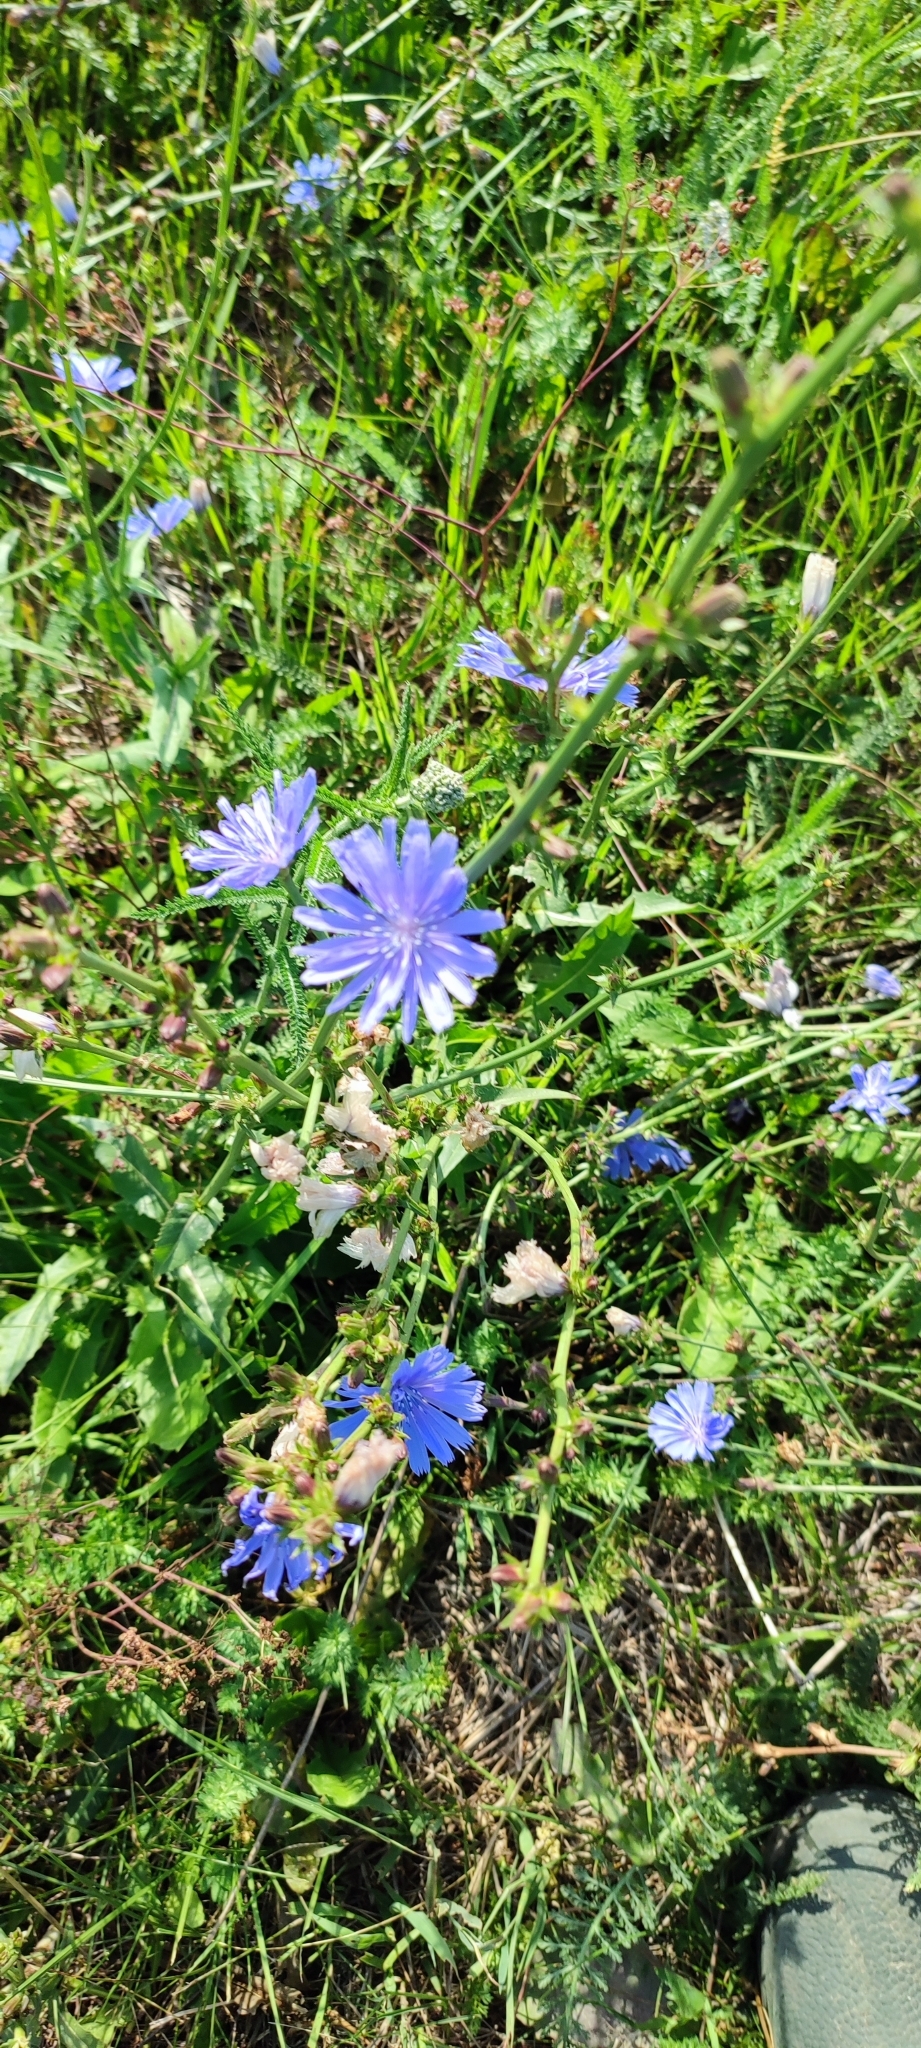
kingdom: Plantae
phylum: Tracheophyta
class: Magnoliopsida
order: Asterales
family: Asteraceae
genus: Cichorium
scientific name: Cichorium intybus
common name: Chicory
